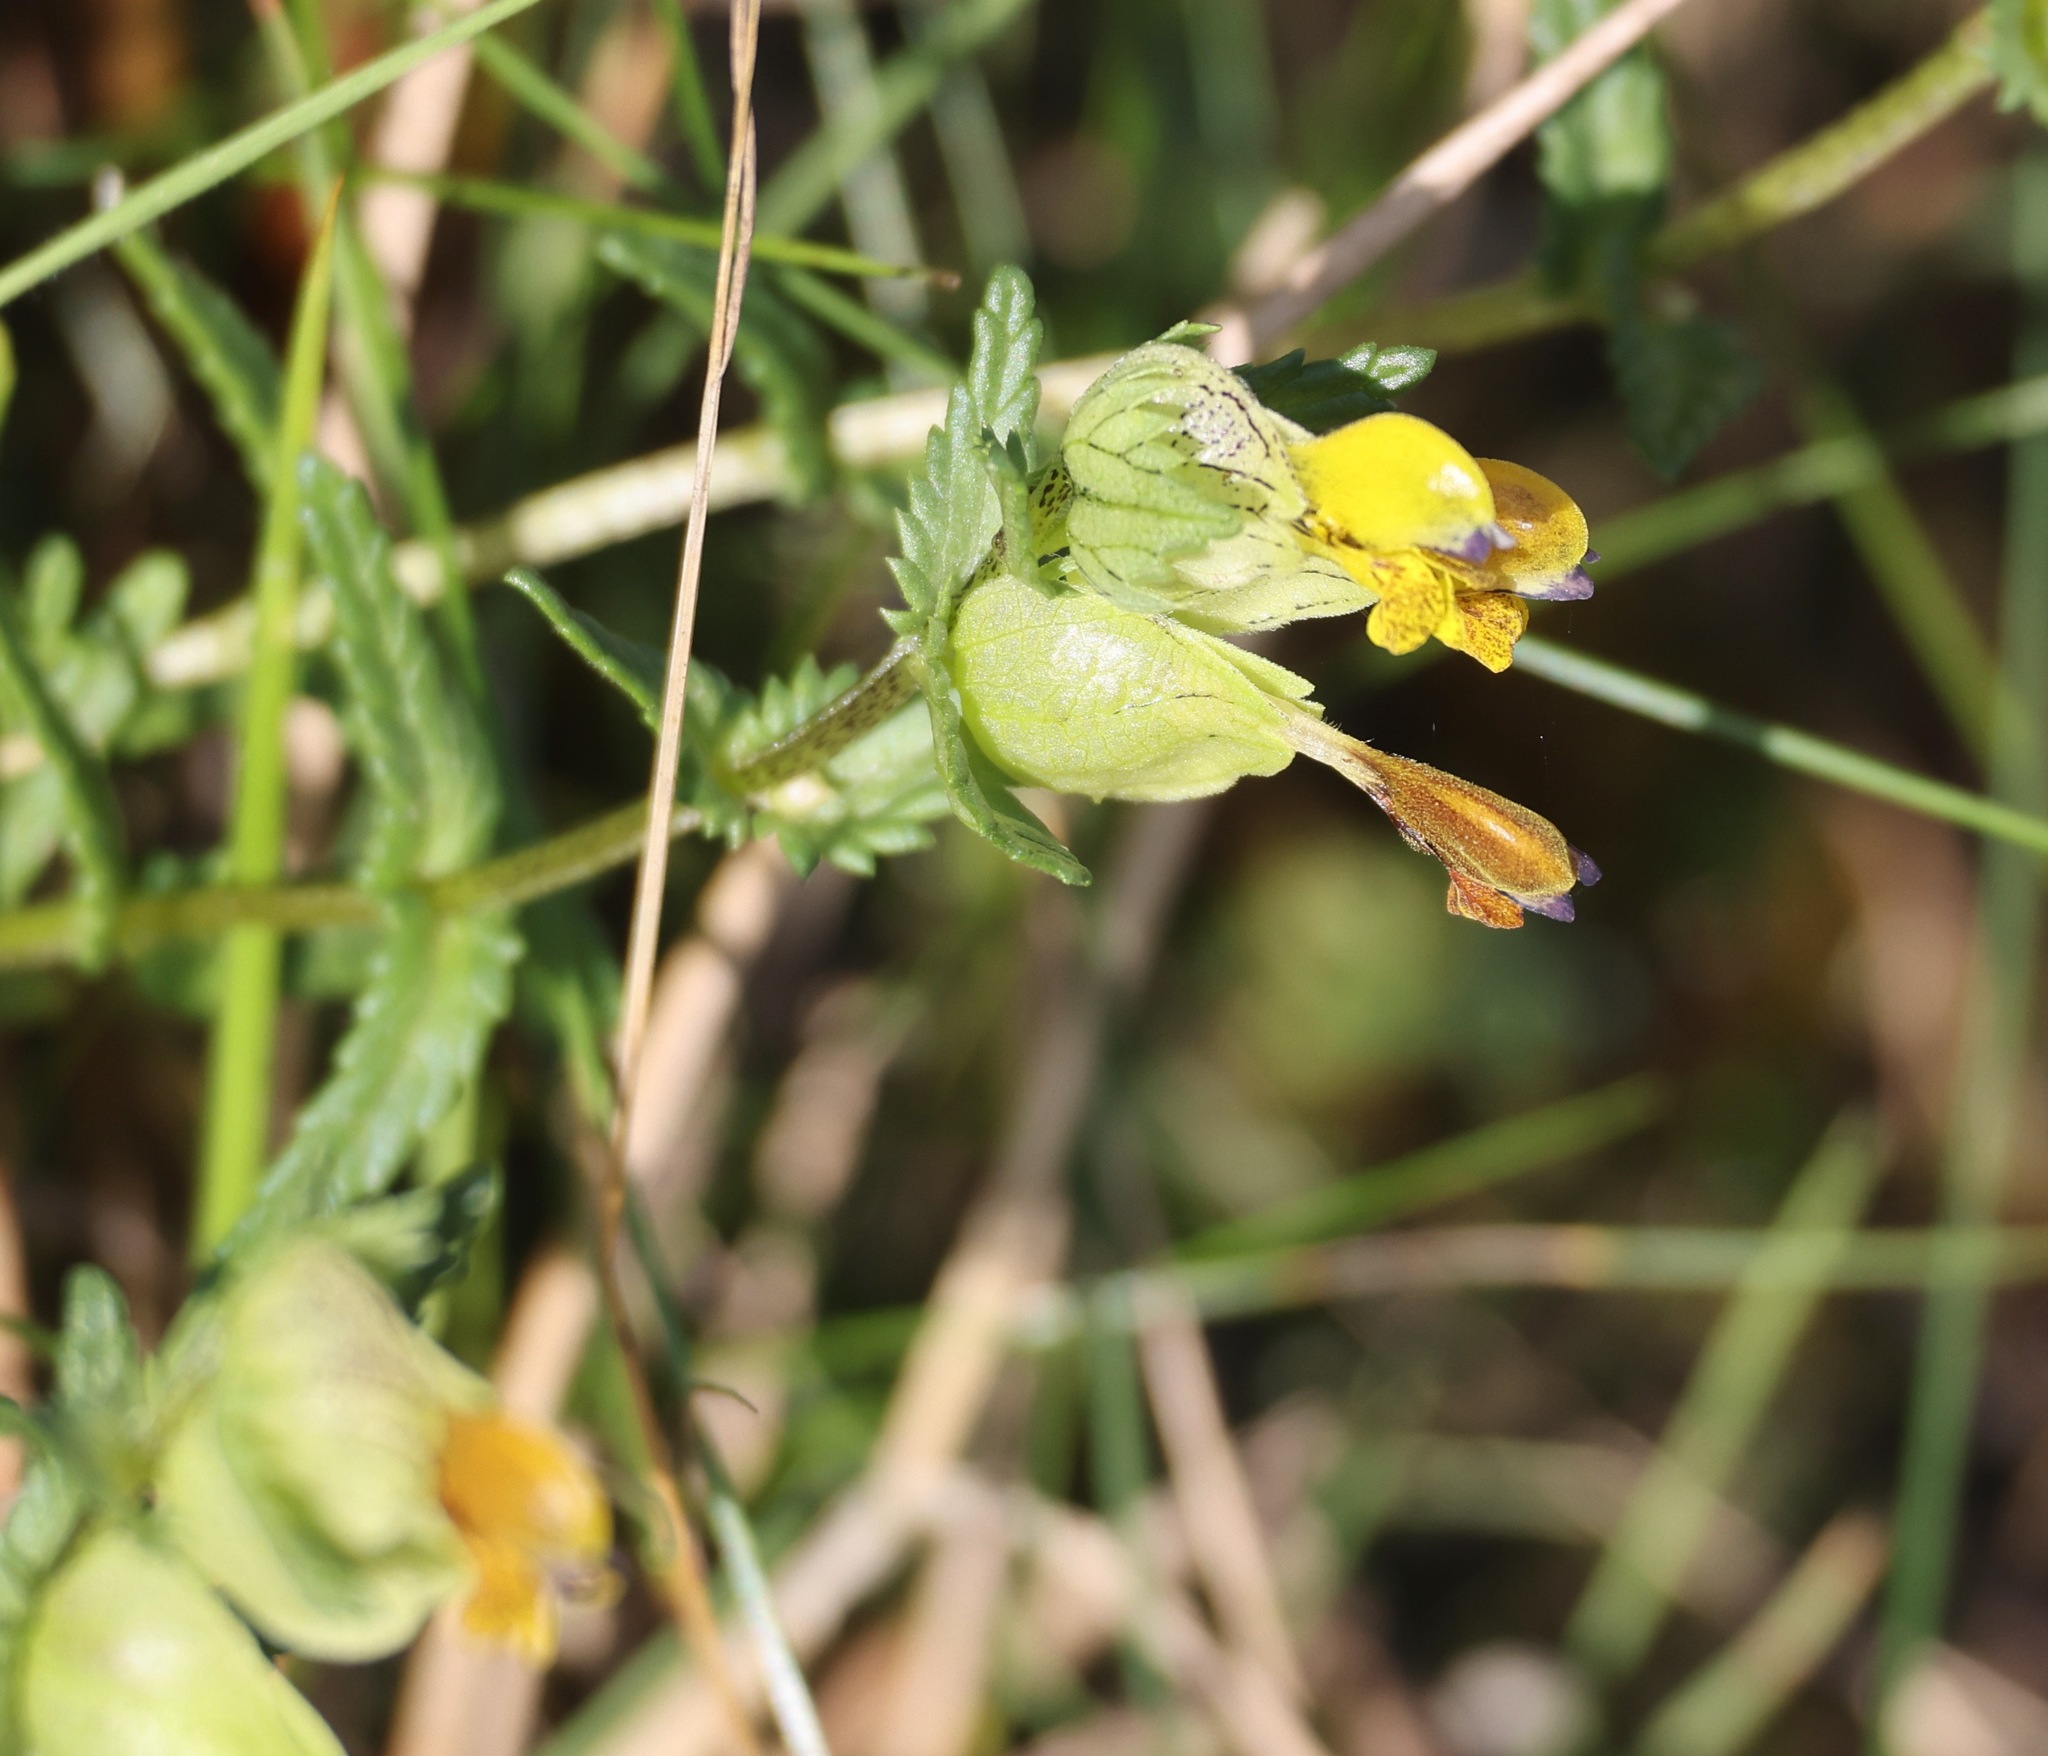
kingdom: Plantae
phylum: Tracheophyta
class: Magnoliopsida
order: Lamiales
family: Orobanchaceae
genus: Rhinanthus
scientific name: Rhinanthus minor
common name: Yellow-rattle
